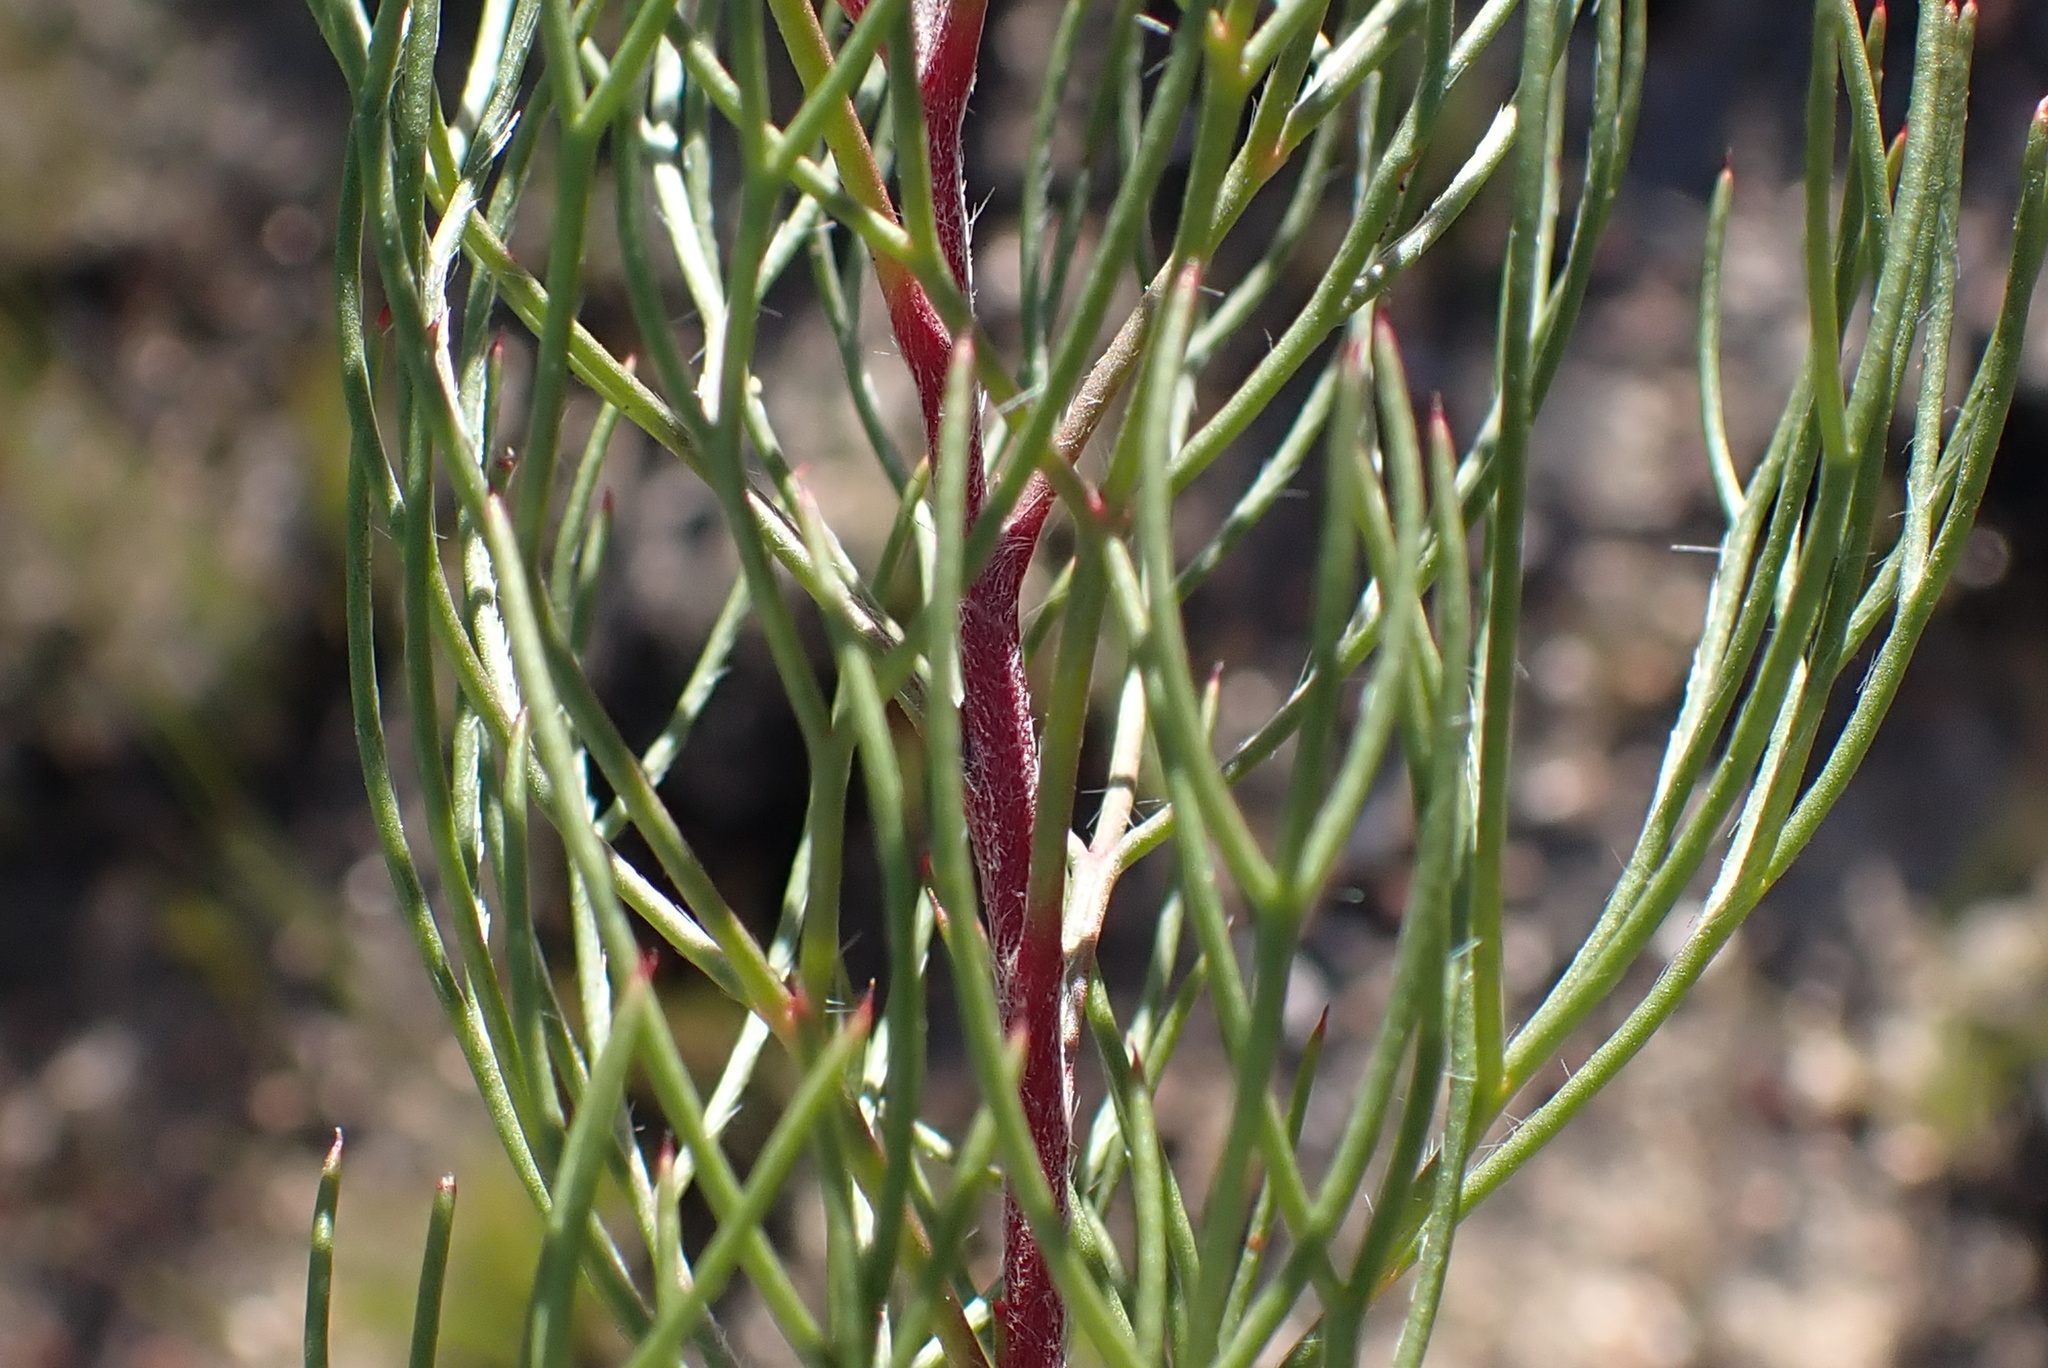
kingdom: Plantae
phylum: Tracheophyta
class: Magnoliopsida
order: Proteales
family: Proteaceae
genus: Serruria
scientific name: Serruria fasciflora
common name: Common pin spiderhead
